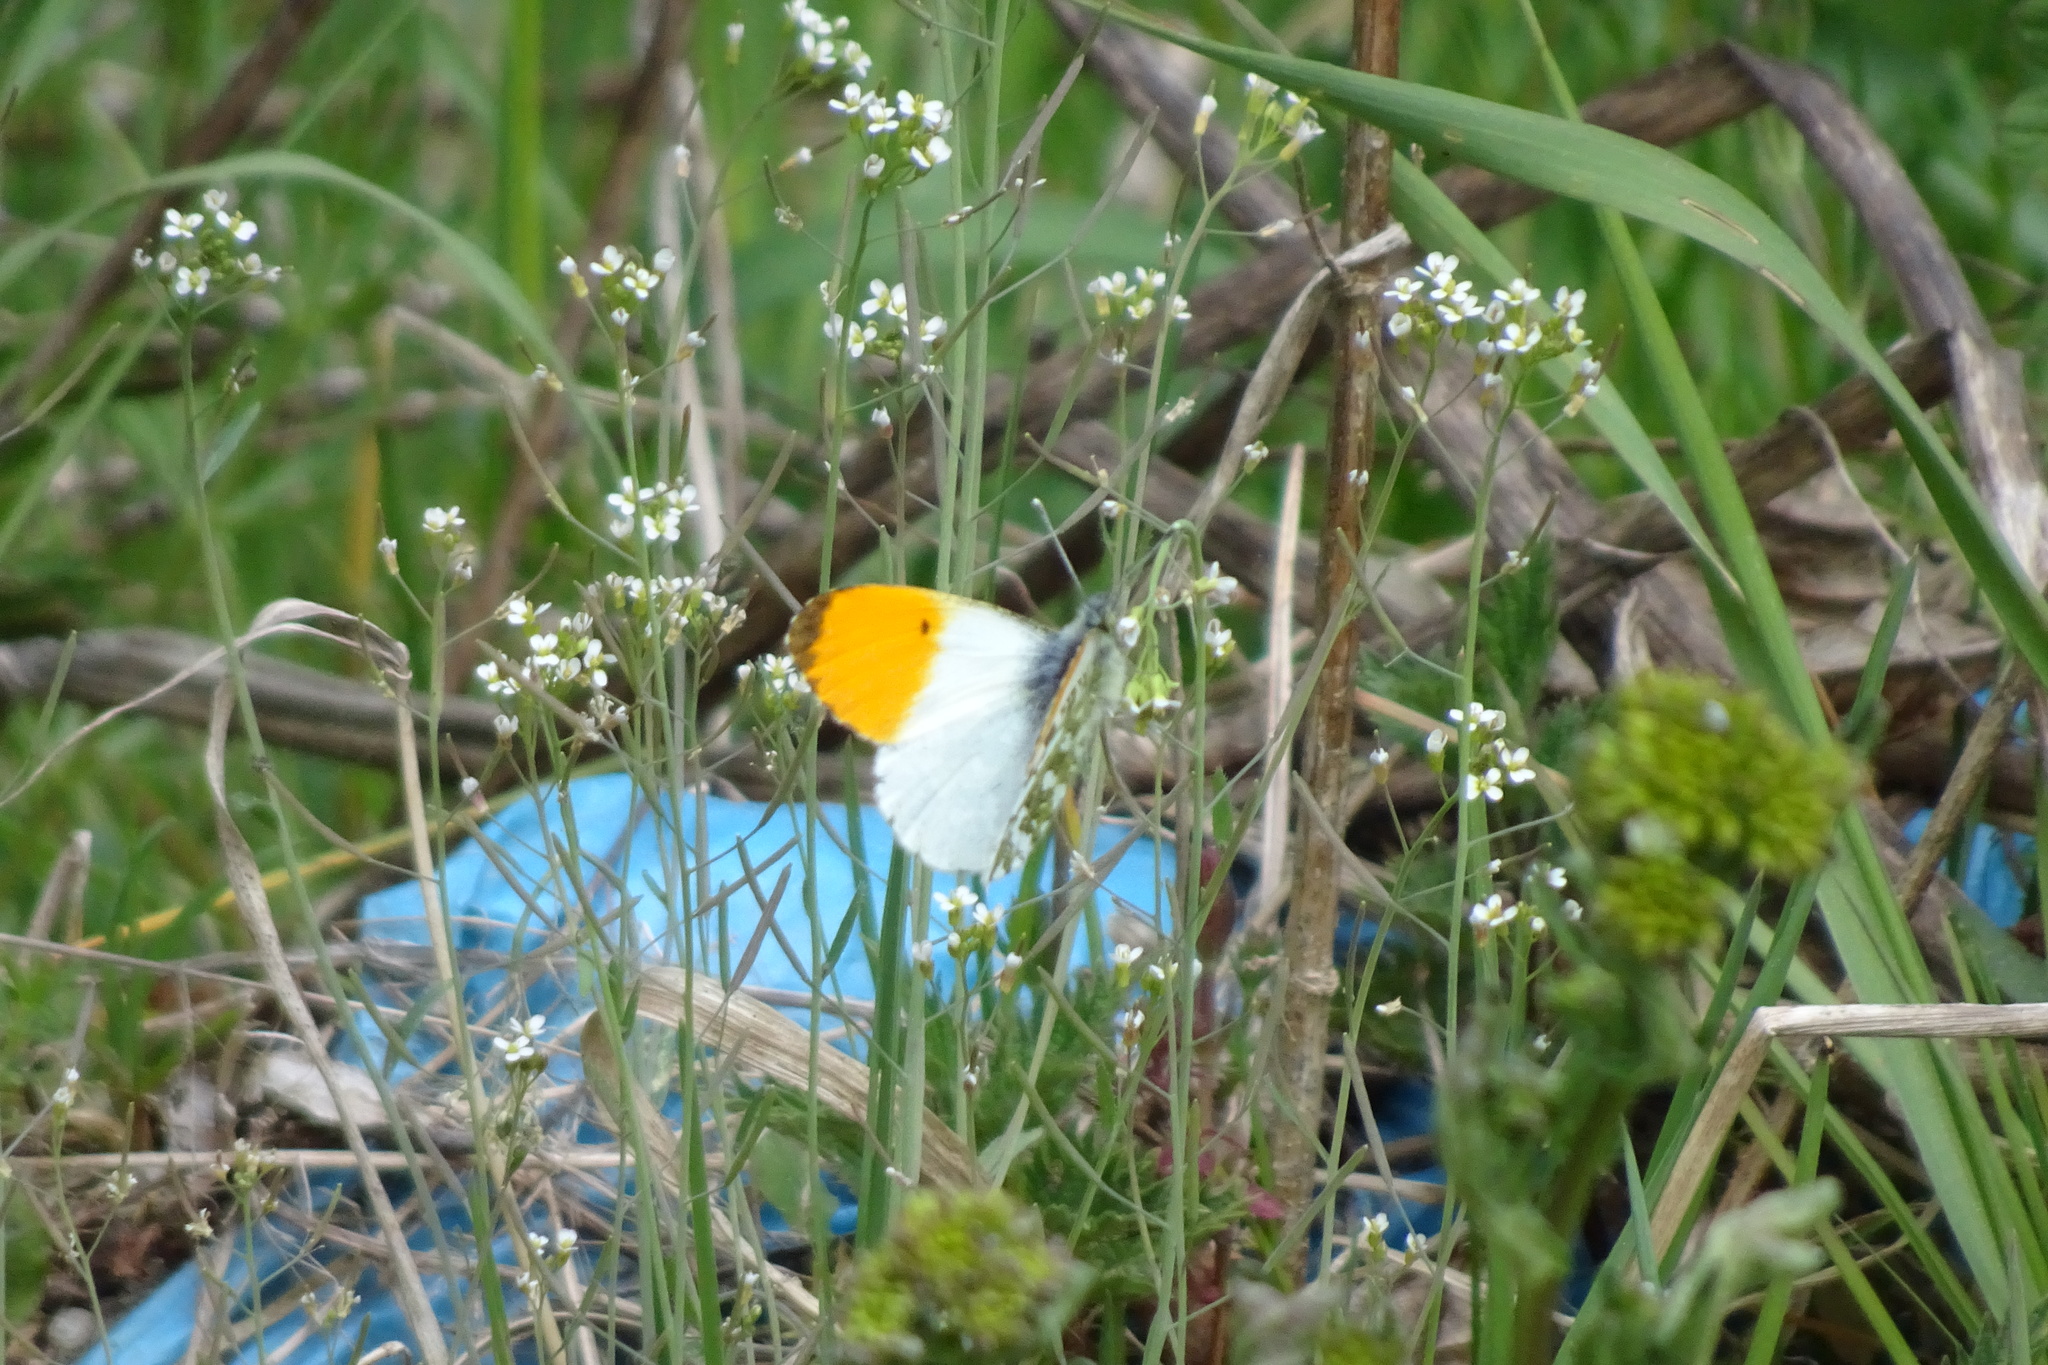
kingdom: Animalia
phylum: Arthropoda
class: Insecta
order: Lepidoptera
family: Pieridae
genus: Anthocharis
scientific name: Anthocharis cardamines
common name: Orange-tip
